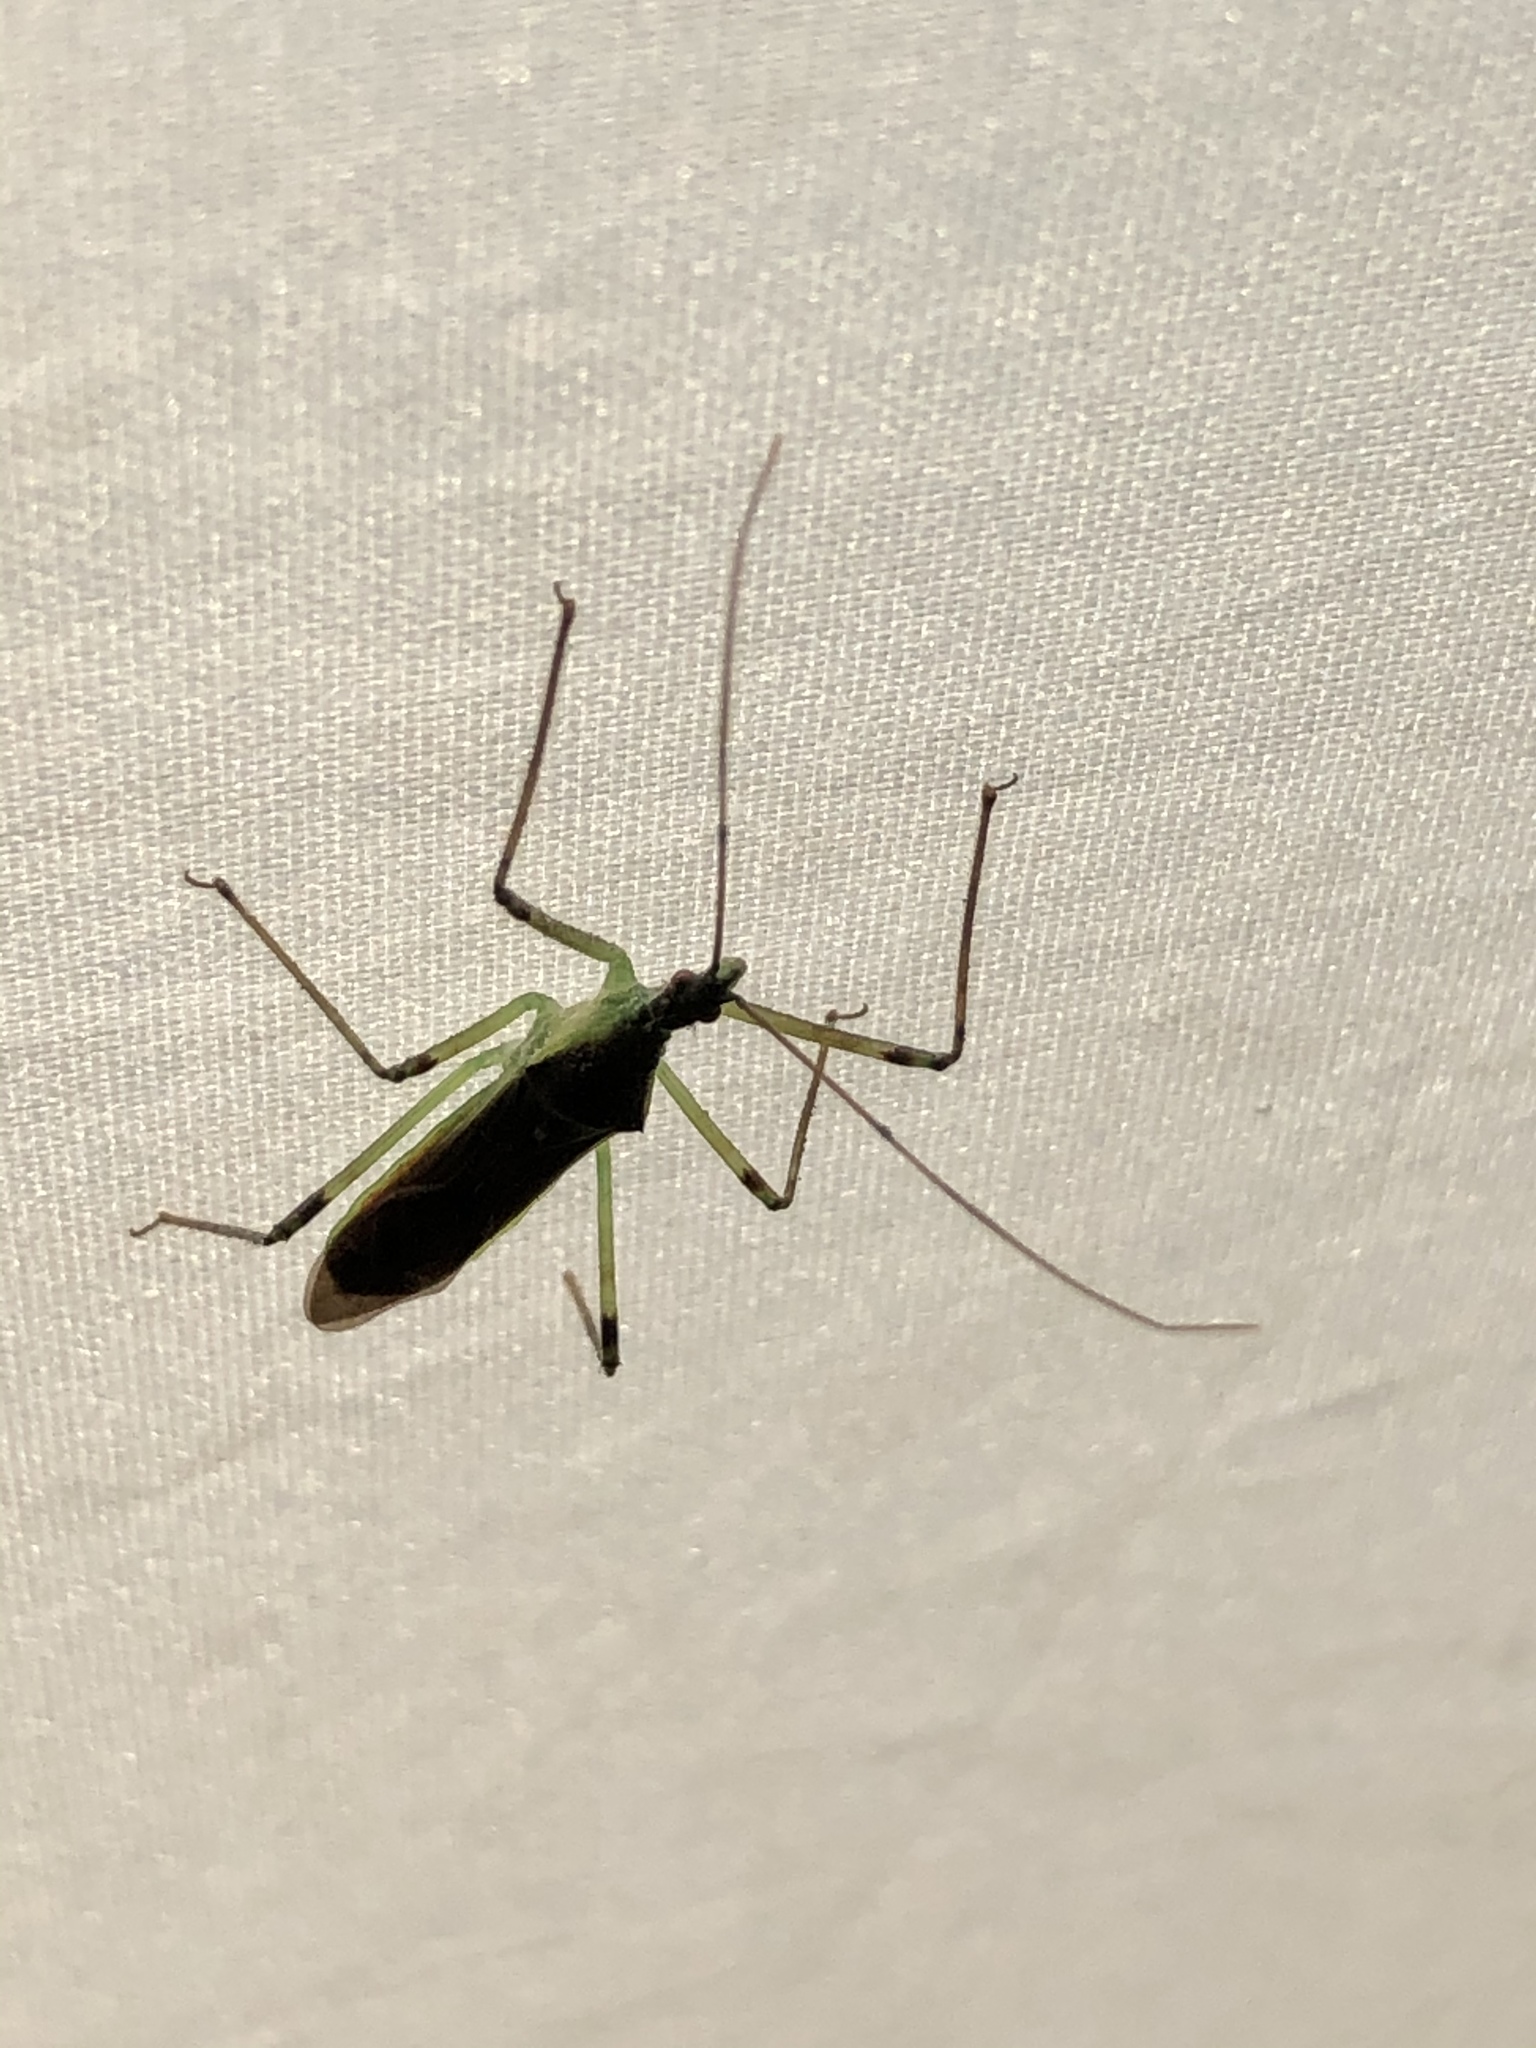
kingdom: Animalia
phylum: Arthropoda
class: Insecta
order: Hemiptera
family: Reduviidae
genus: Zelus
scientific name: Zelus luridus
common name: Pale green assassin bug
